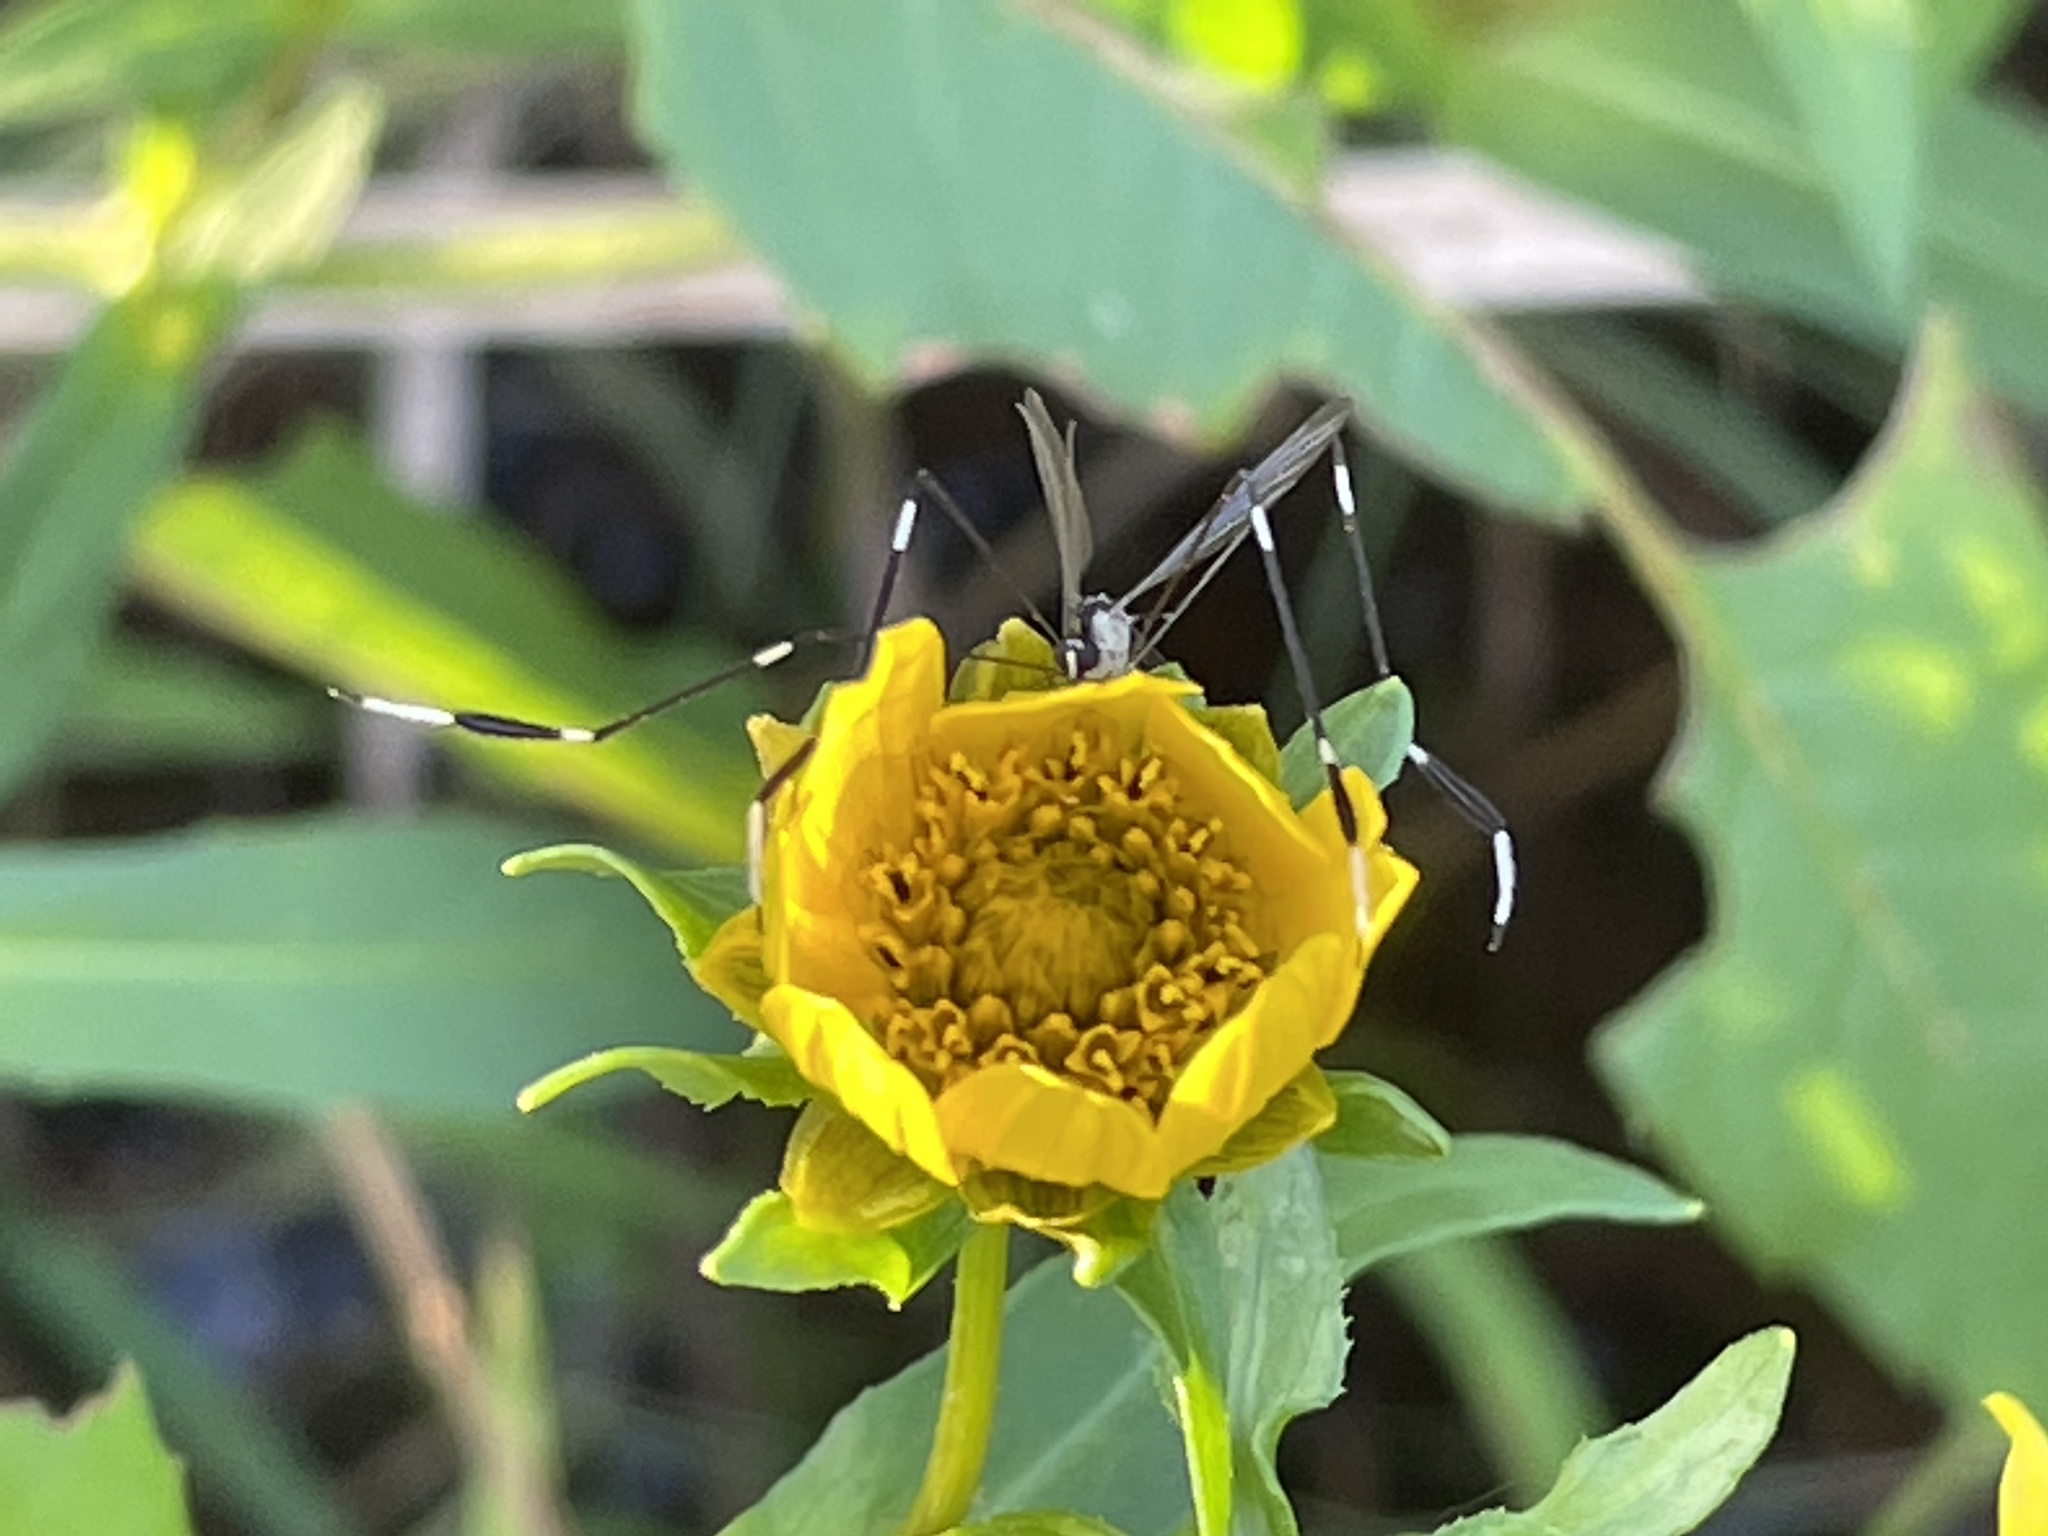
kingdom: Animalia
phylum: Arthropoda
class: Insecta
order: Diptera
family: Ptychopteridae
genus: Bittacomorpha
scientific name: Bittacomorpha clavipes
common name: Eastern phantom crane fly
